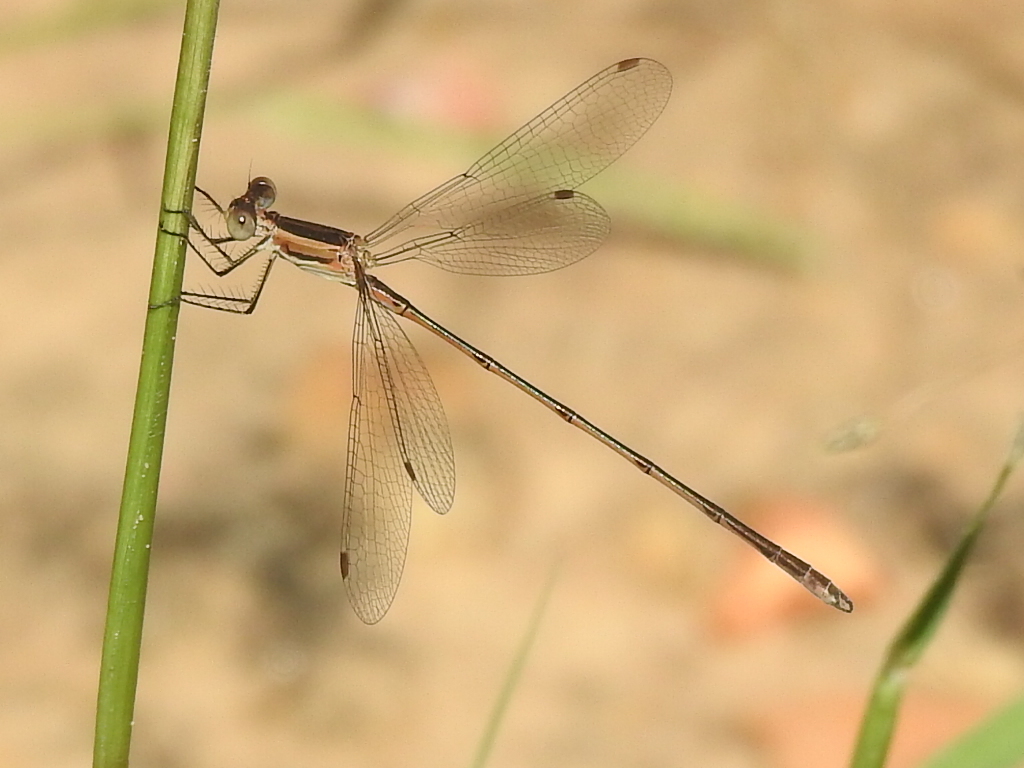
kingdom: Animalia
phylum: Arthropoda
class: Insecta
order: Odonata
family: Lestidae
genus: Lestes
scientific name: Lestes alacer
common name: Plateau spreadwing
